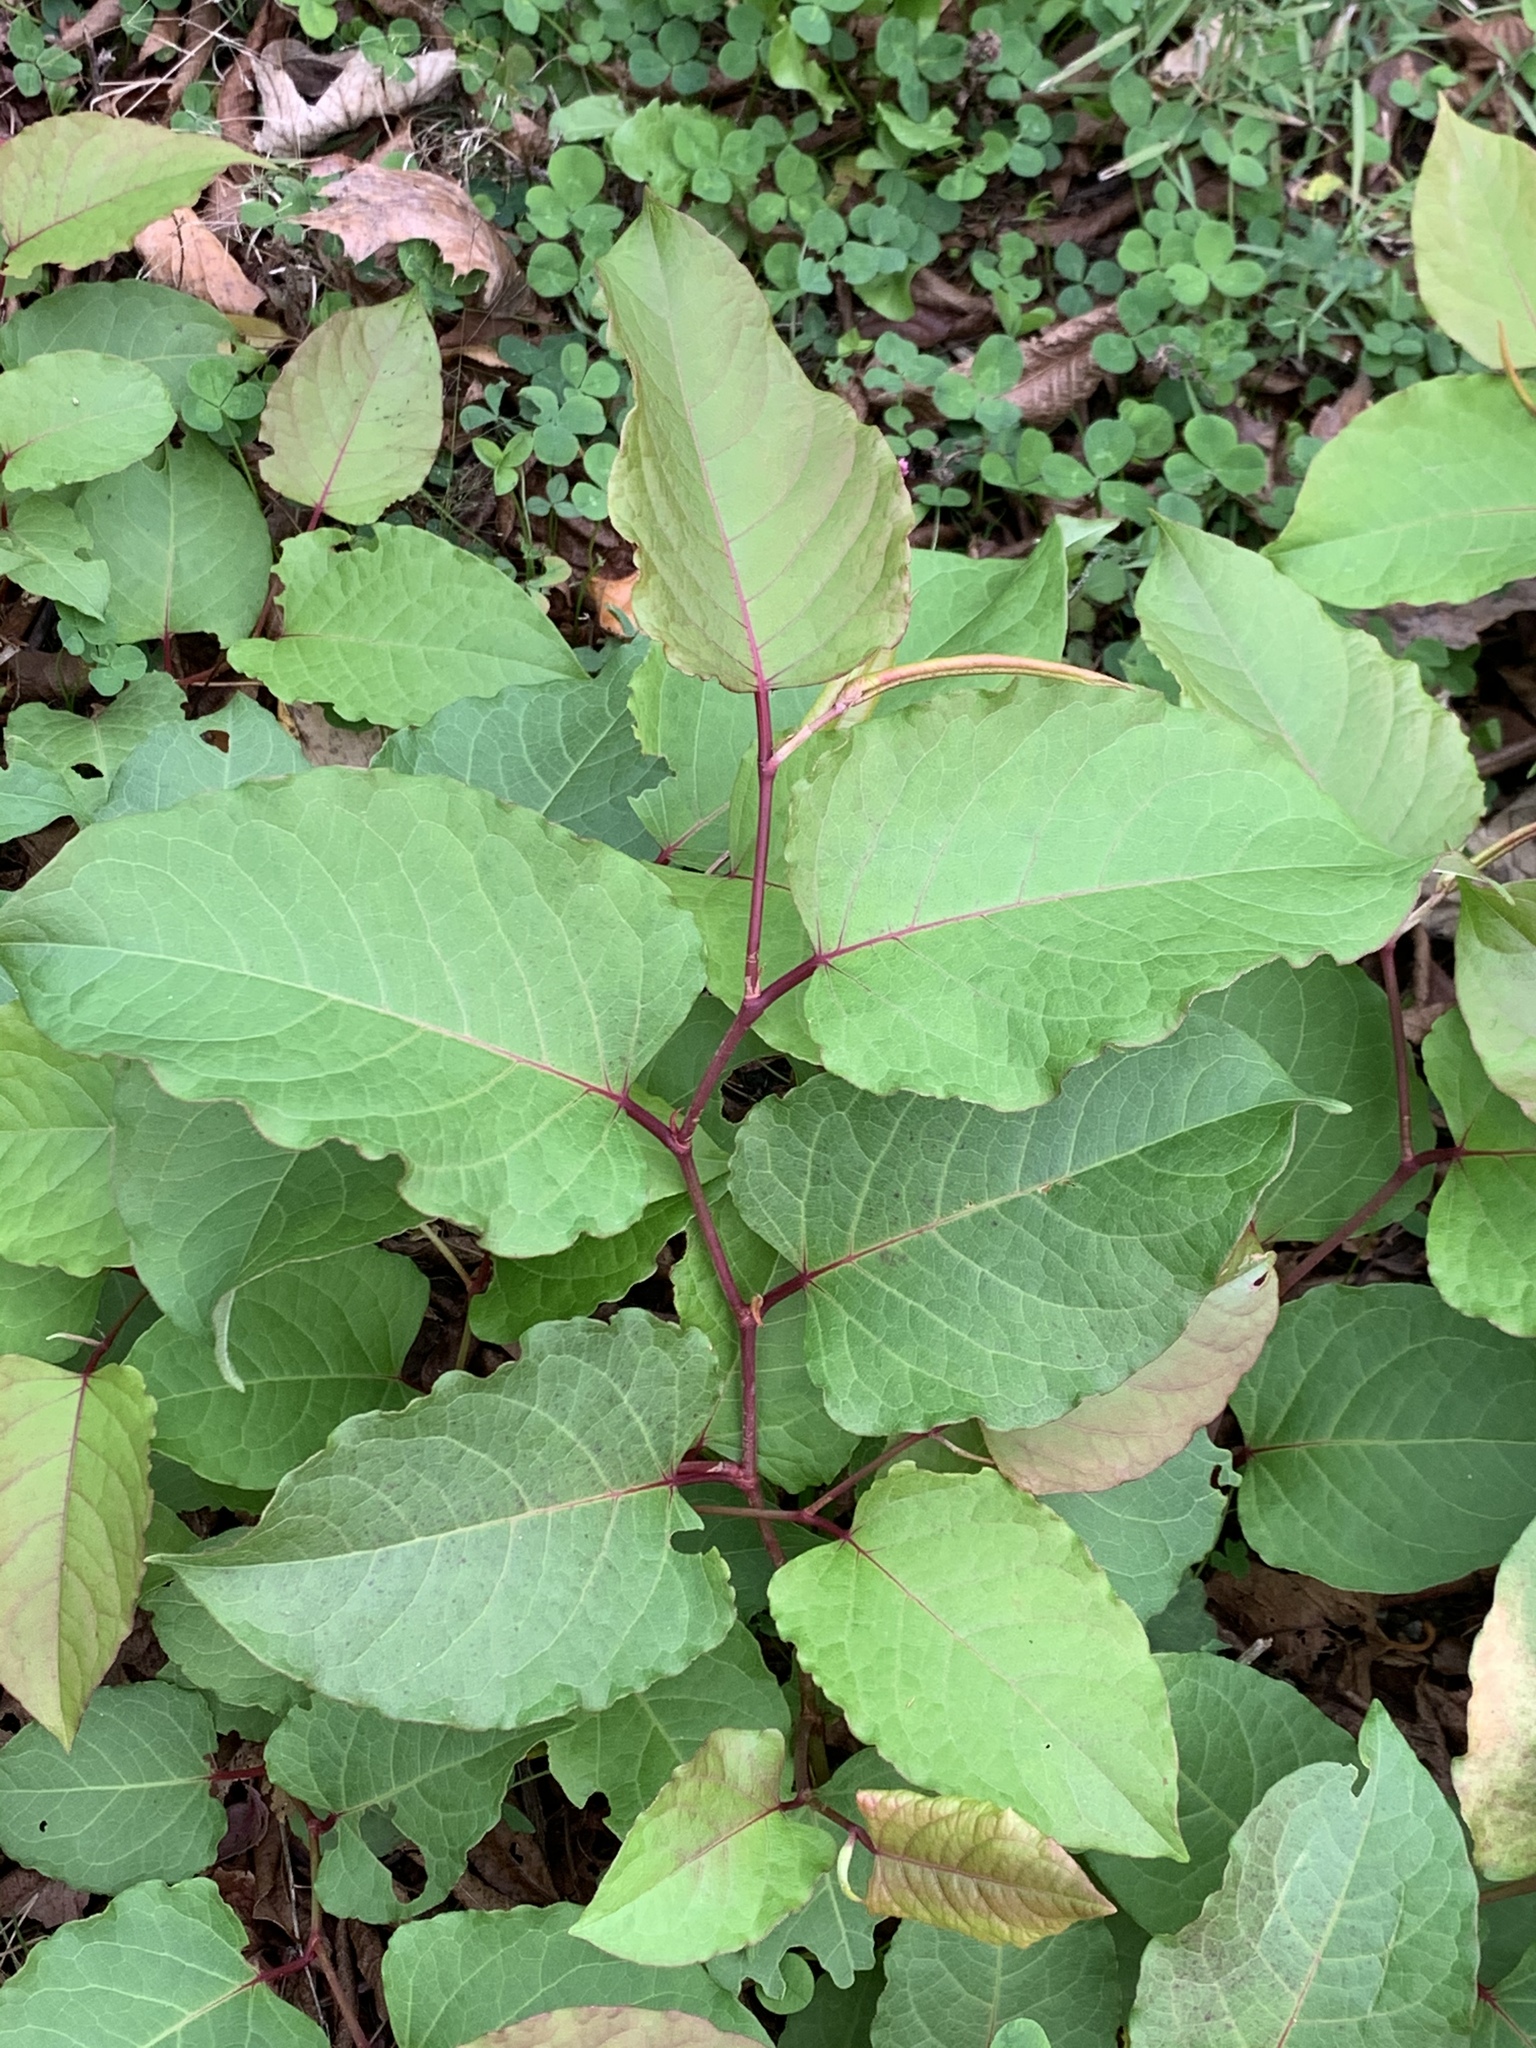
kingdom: Plantae
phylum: Tracheophyta
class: Magnoliopsida
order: Caryophyllales
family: Polygonaceae
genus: Reynoutria
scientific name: Reynoutria japonica
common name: Japanese knotweed
